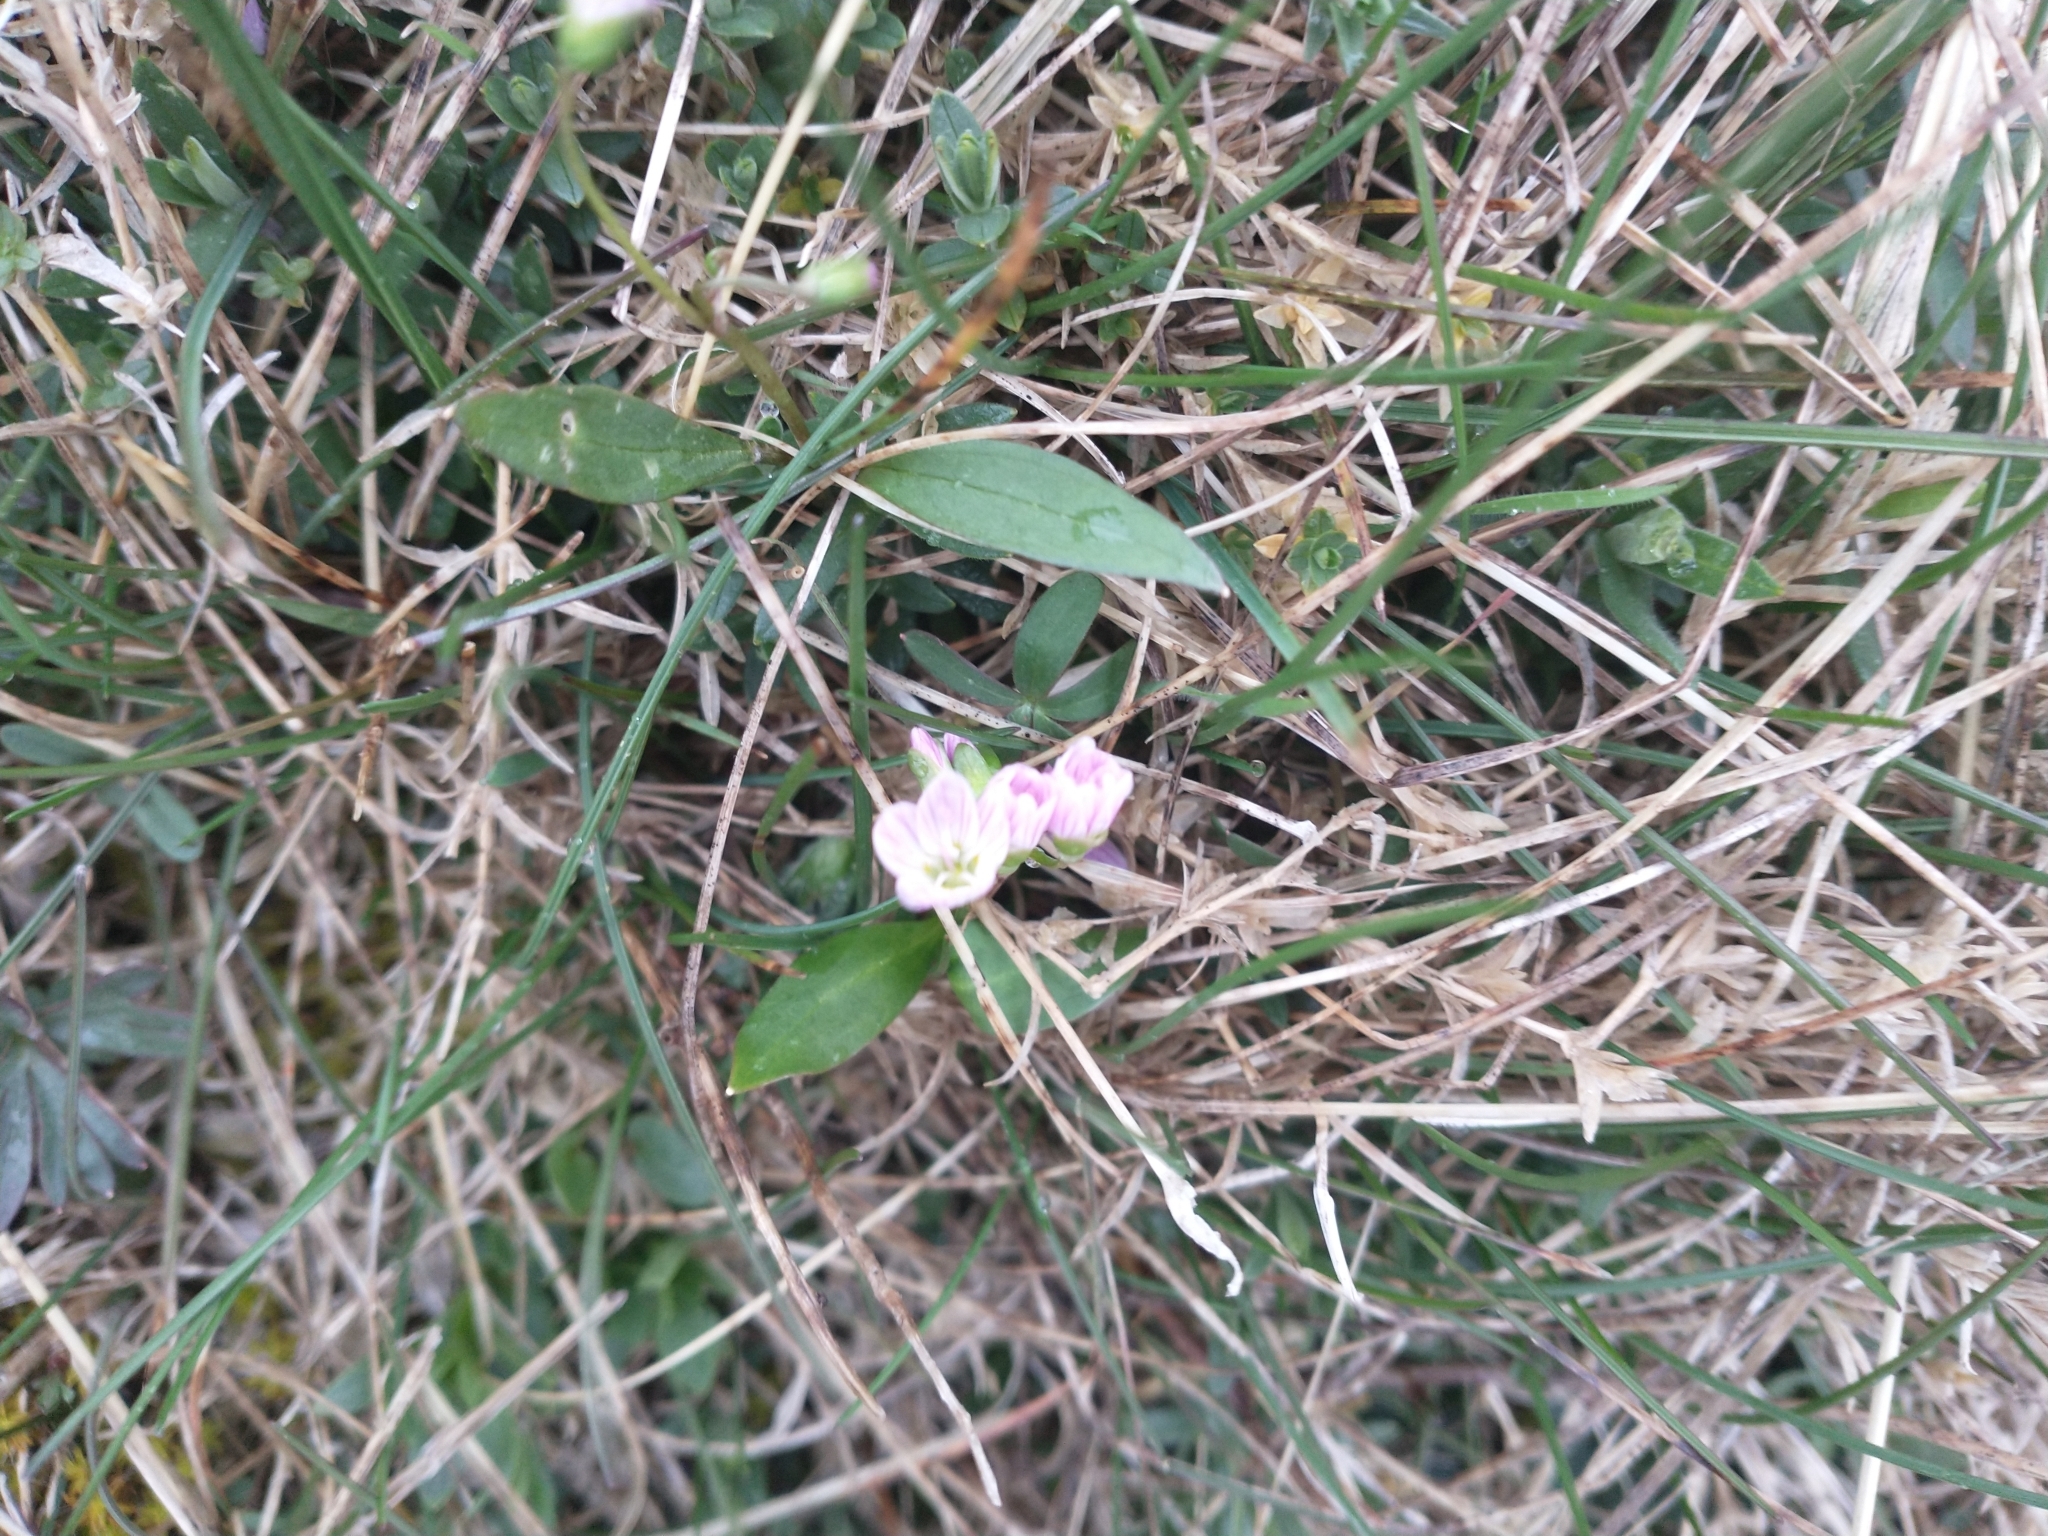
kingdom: Plantae
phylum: Tracheophyta
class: Magnoliopsida
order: Caryophyllales
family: Montiaceae
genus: Claytonia
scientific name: Claytonia lanceolata
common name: Western spring-beauty
